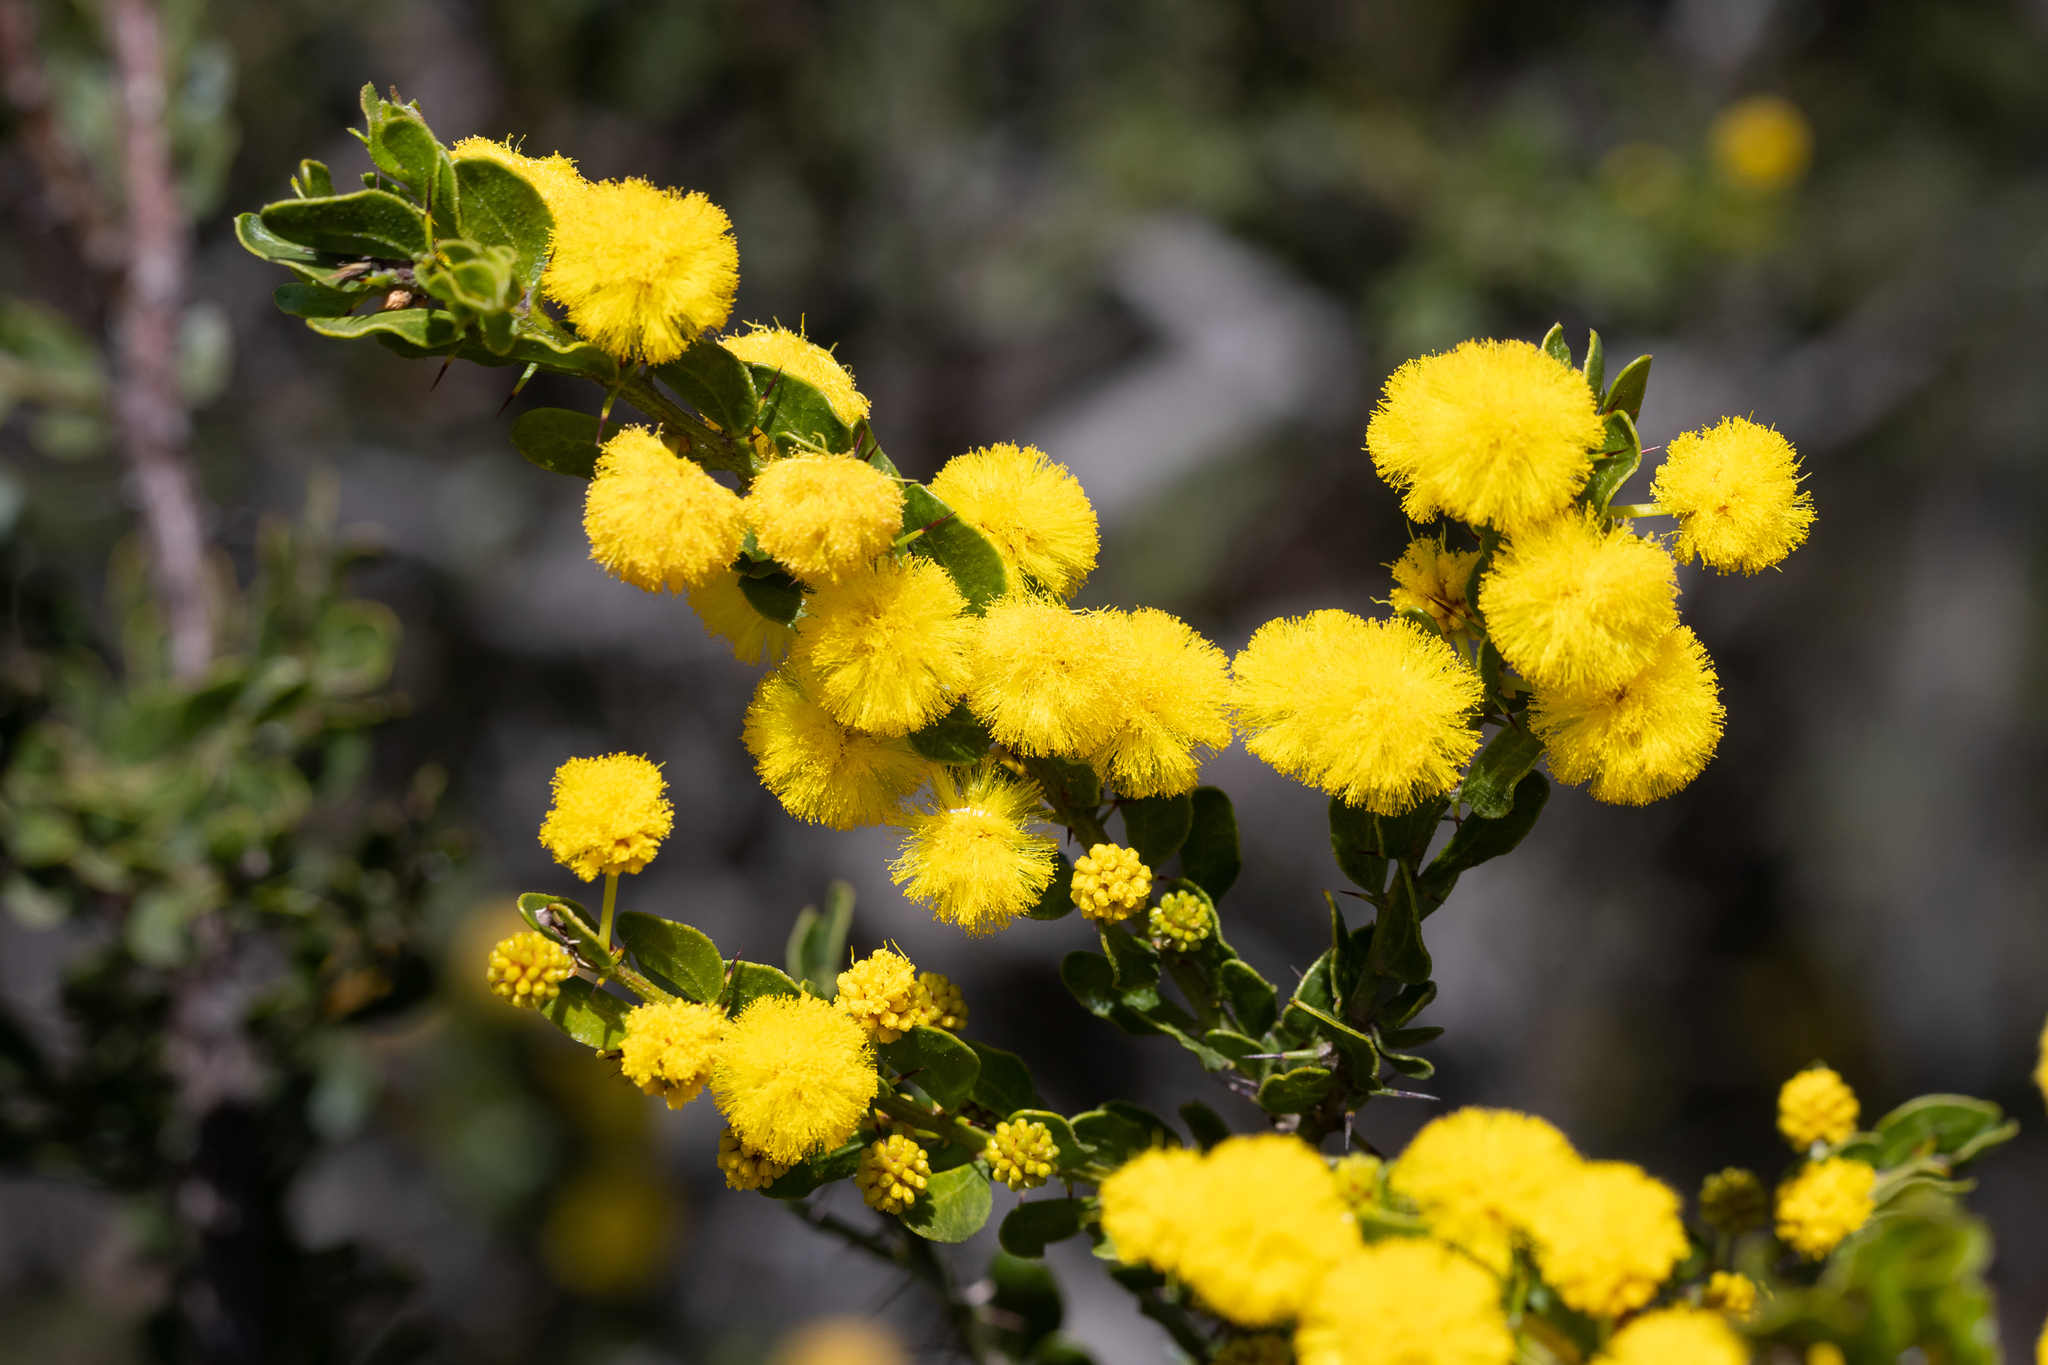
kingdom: Plantae
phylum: Tracheophyta
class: Magnoliopsida
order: Fabales
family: Fabaceae
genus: Acacia
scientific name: Acacia paradoxa
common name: Paradox acacia
